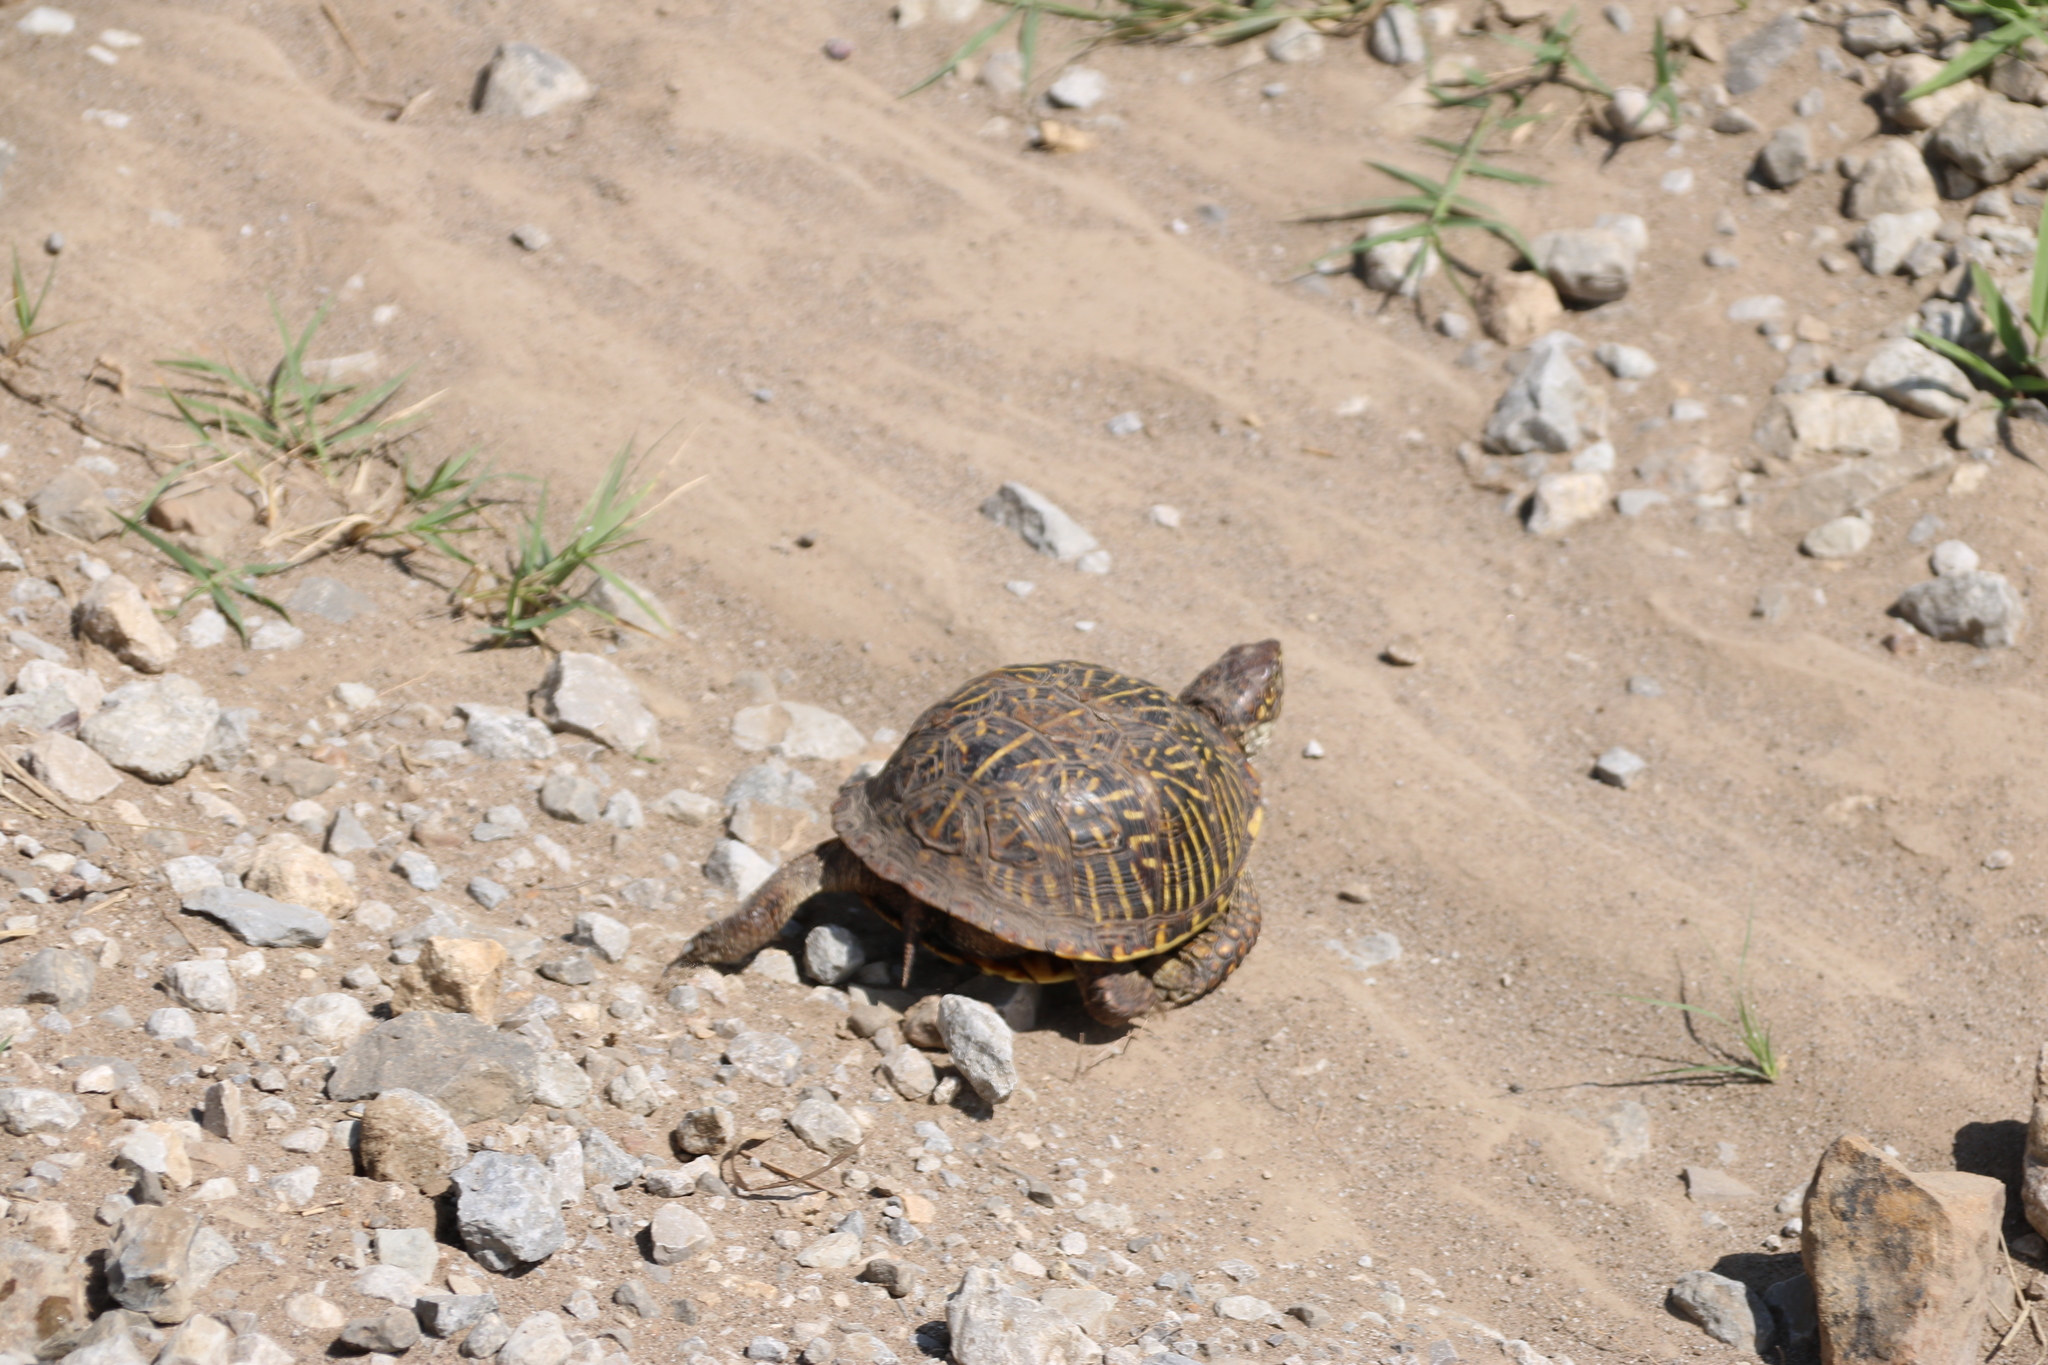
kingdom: Animalia
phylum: Chordata
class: Testudines
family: Emydidae
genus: Terrapene
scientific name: Terrapene ornata
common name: Western box turtle
